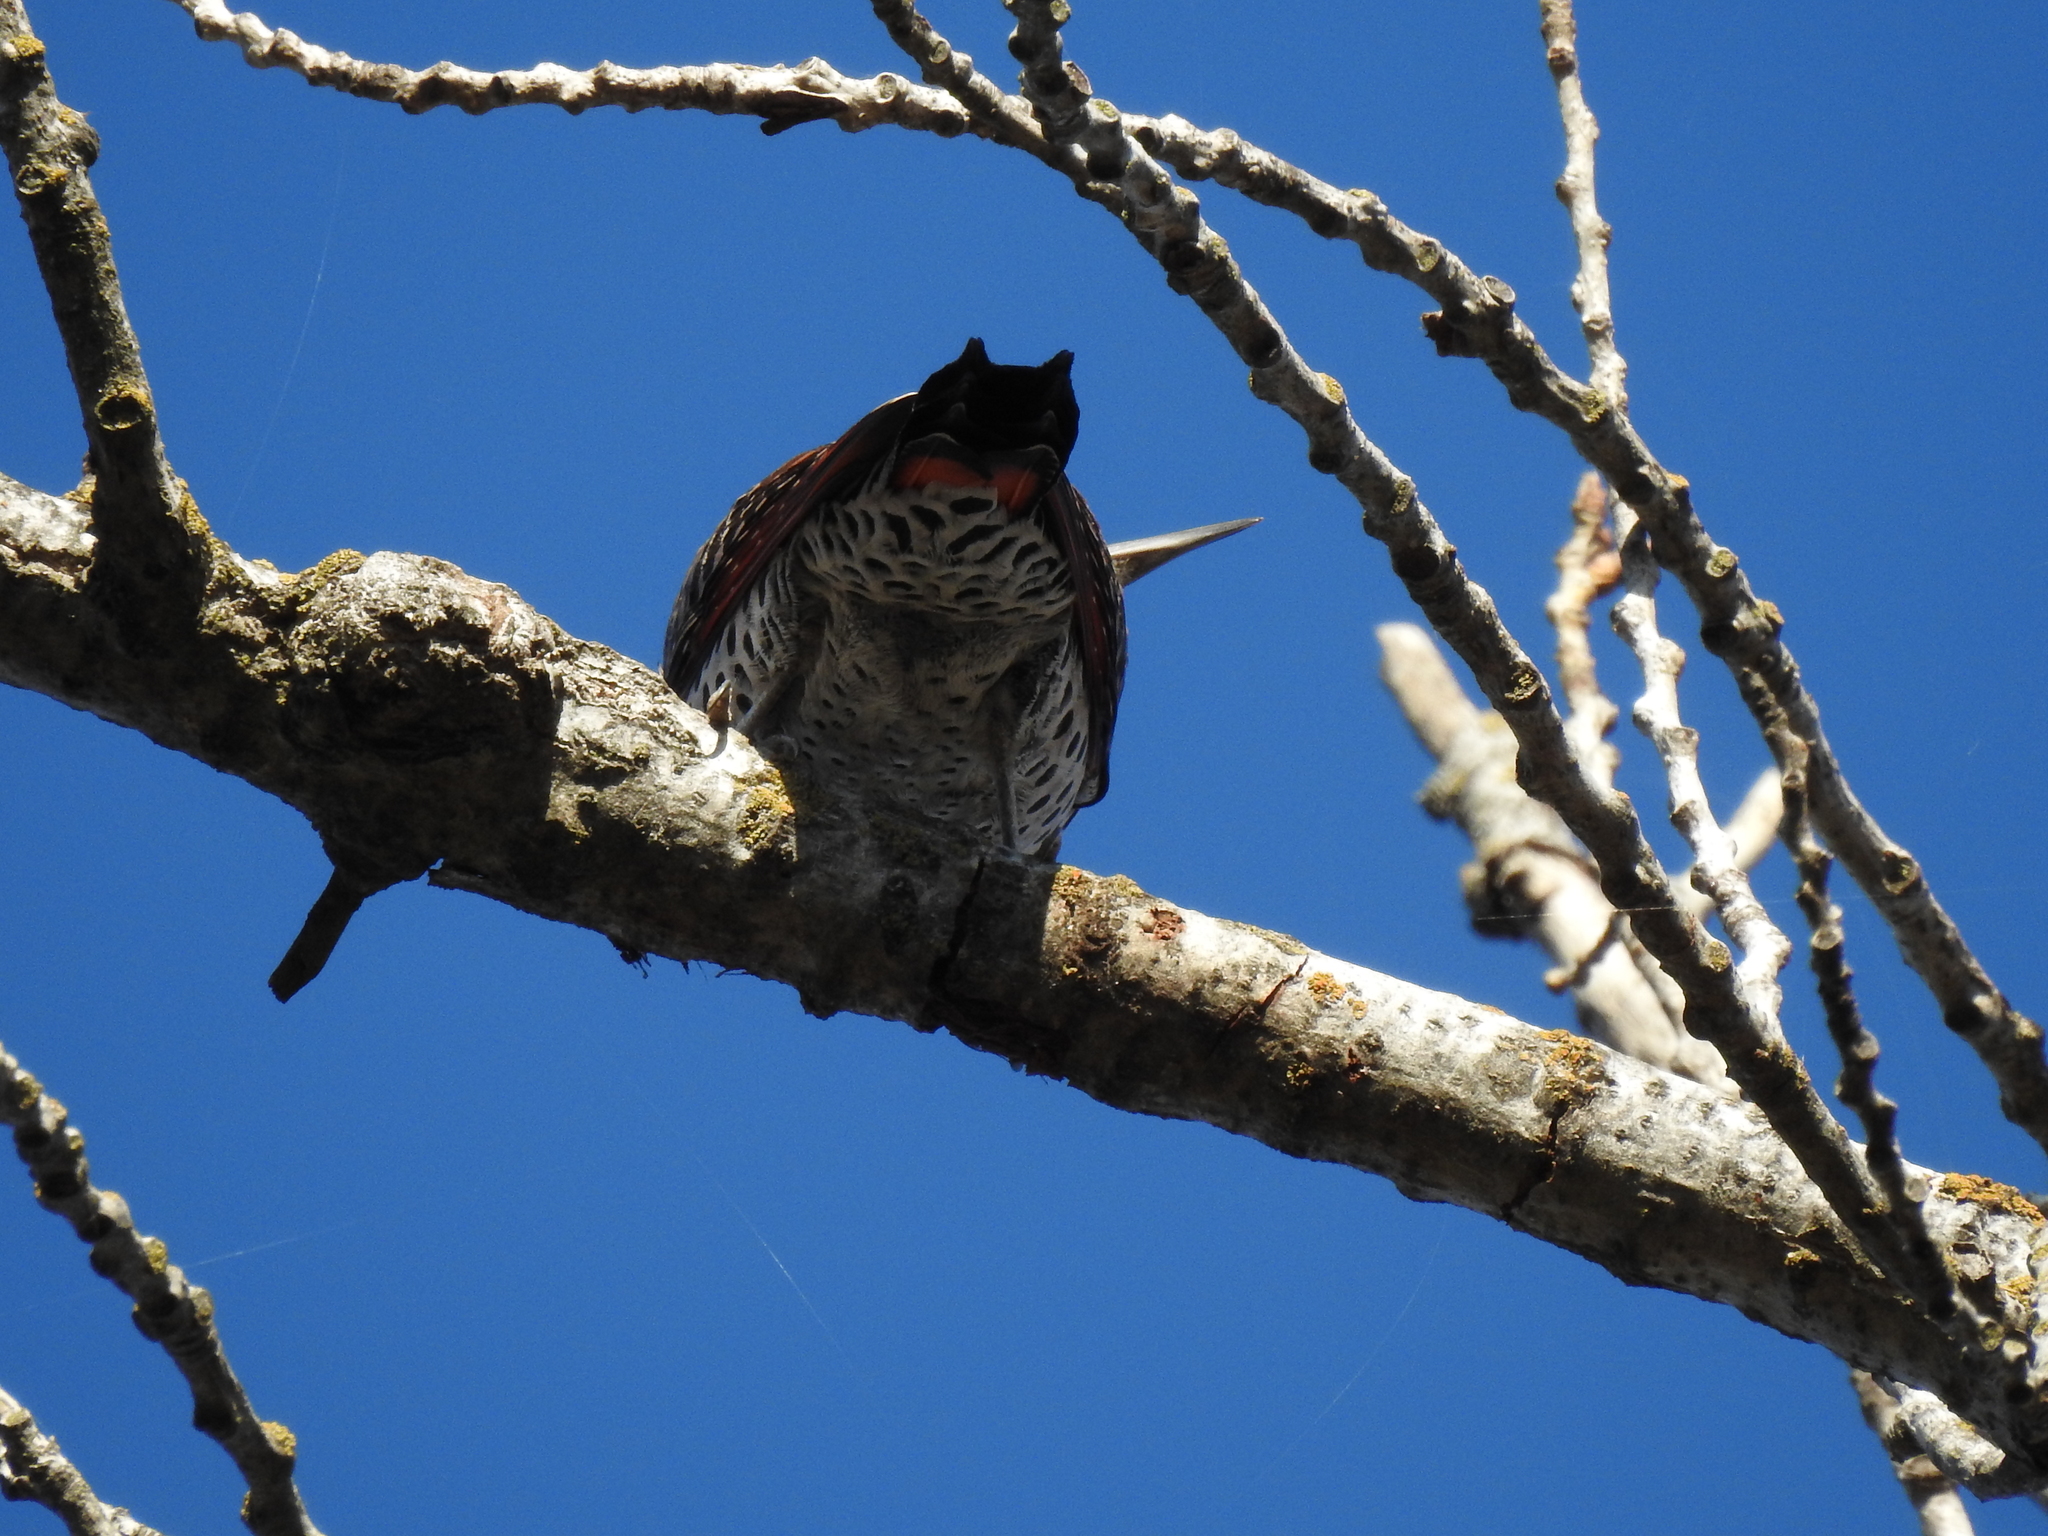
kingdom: Animalia
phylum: Chordata
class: Aves
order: Piciformes
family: Picidae
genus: Colaptes
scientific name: Colaptes auratus
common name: Northern flicker
